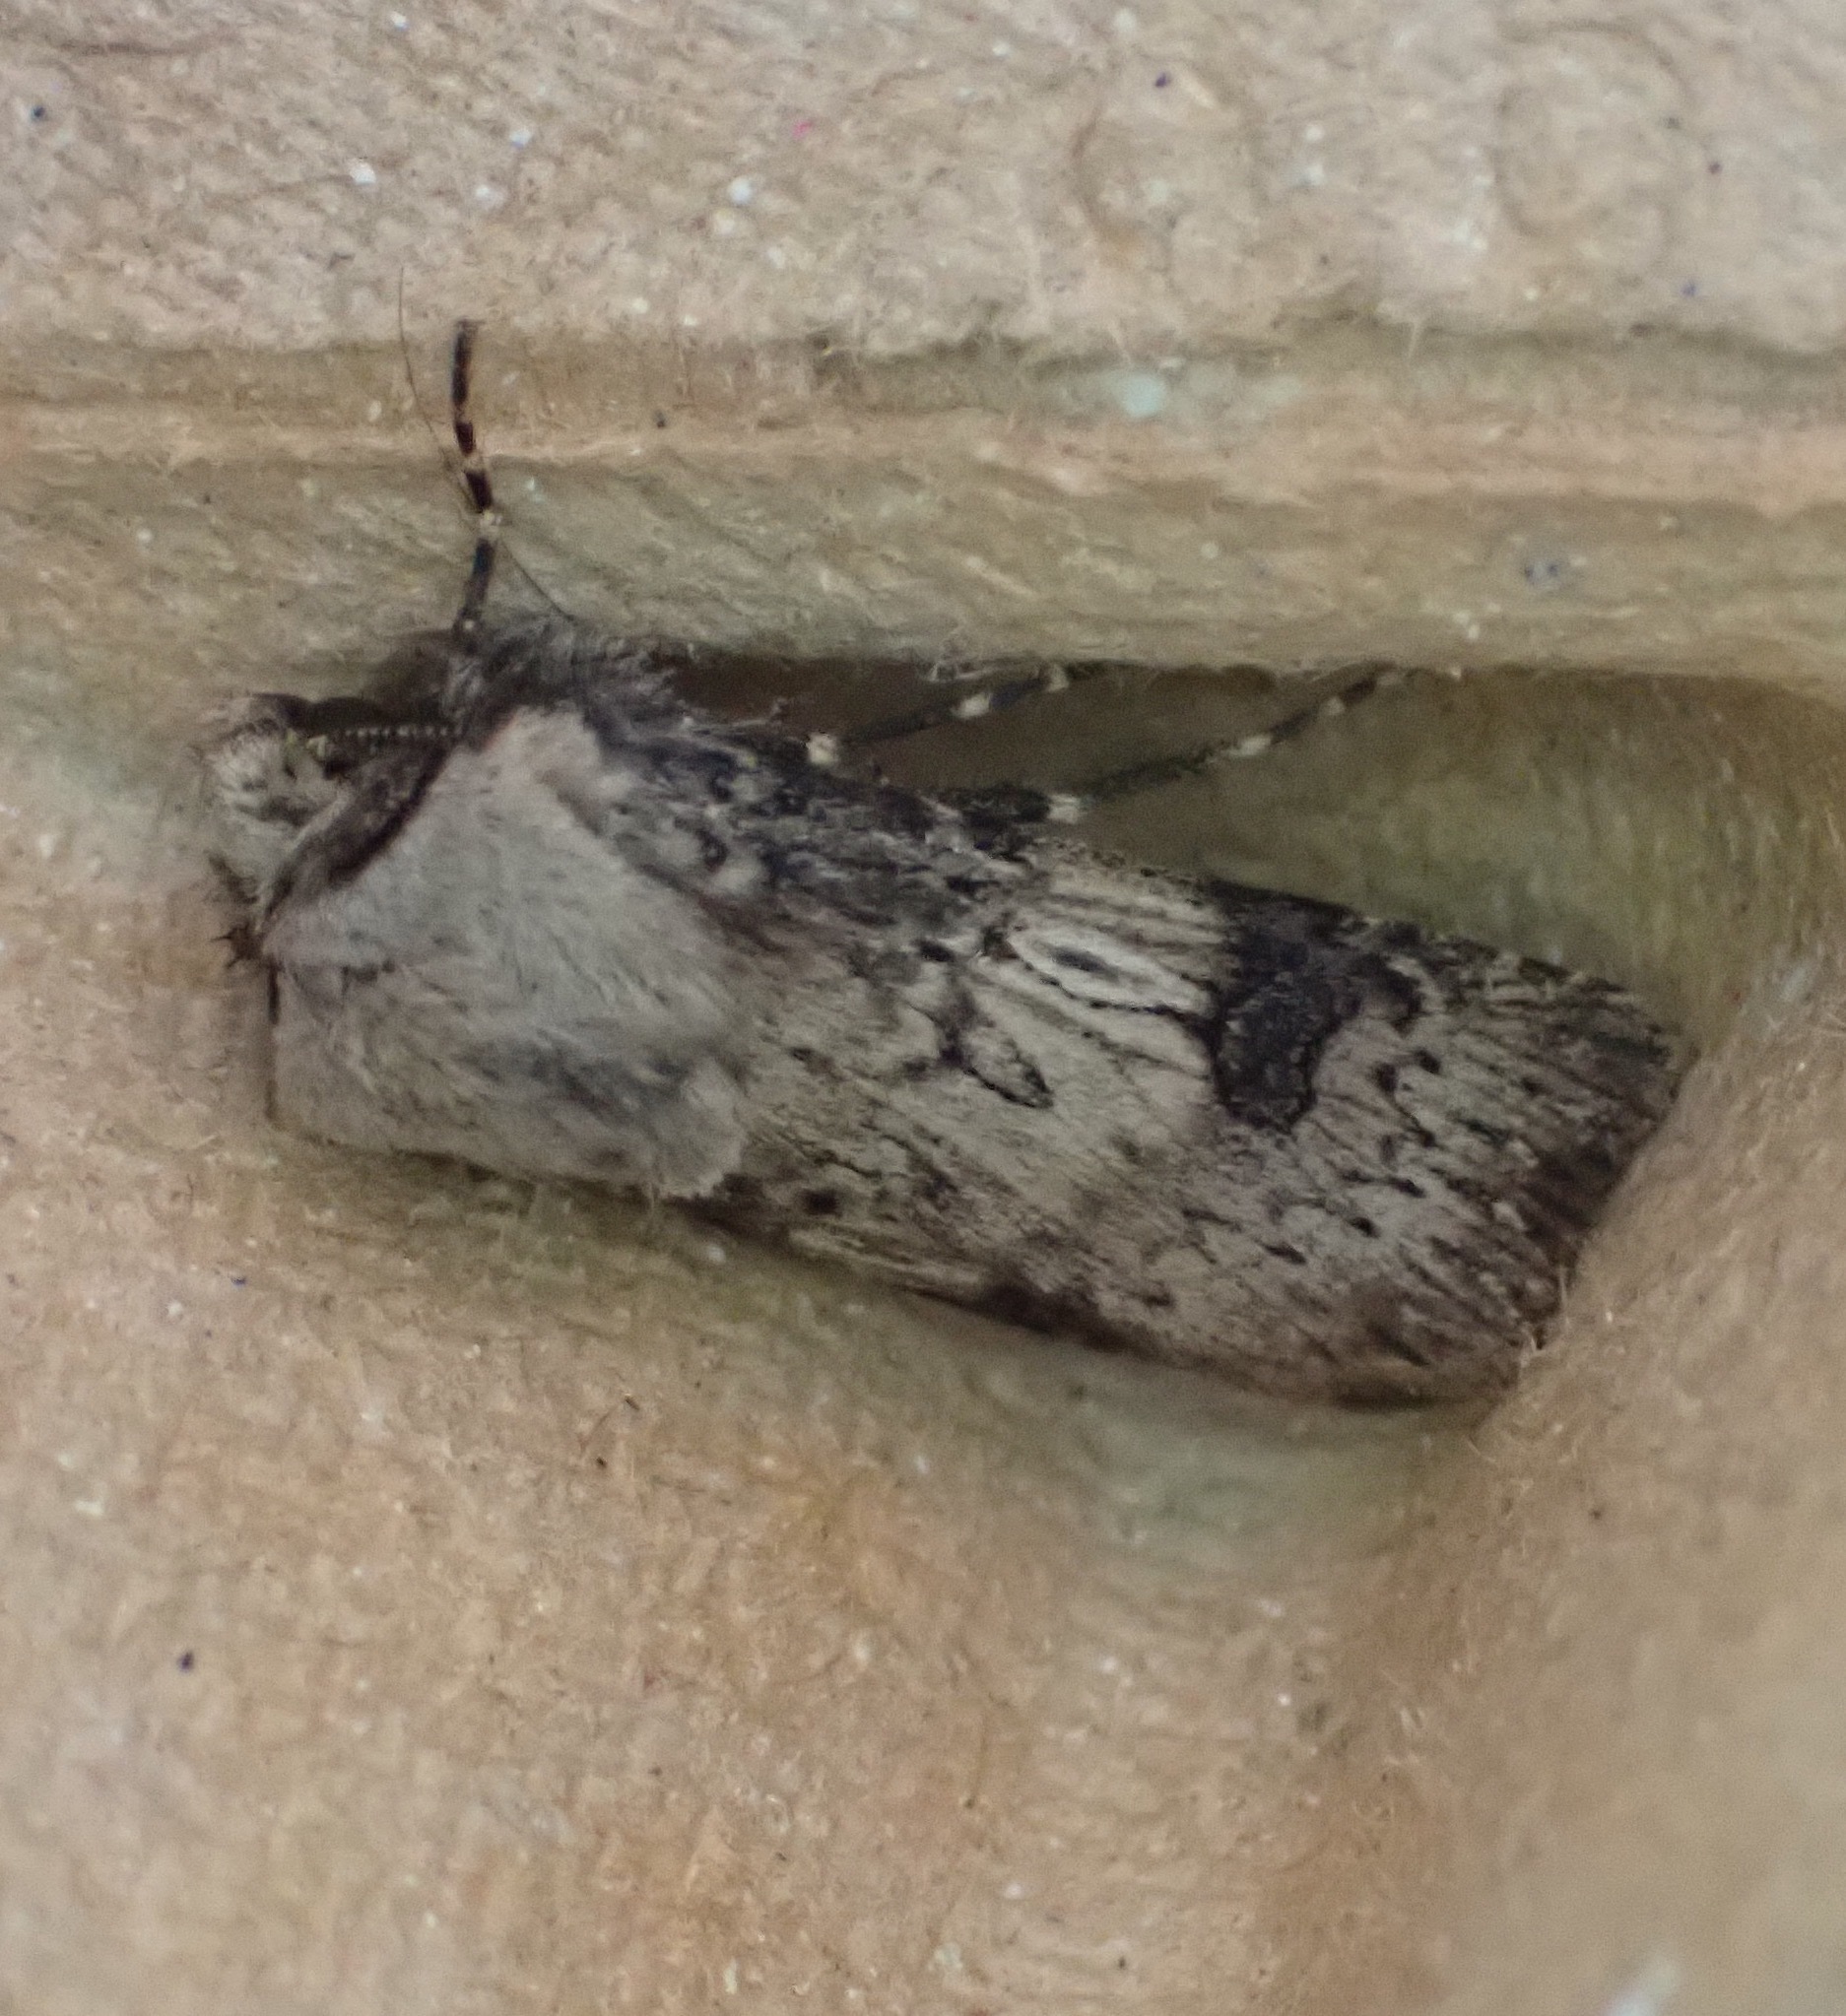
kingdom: Animalia
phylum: Arthropoda
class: Insecta
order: Lepidoptera
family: Noctuidae
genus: Agrotis
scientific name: Agrotis puta
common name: Shuttle-shaped dart
